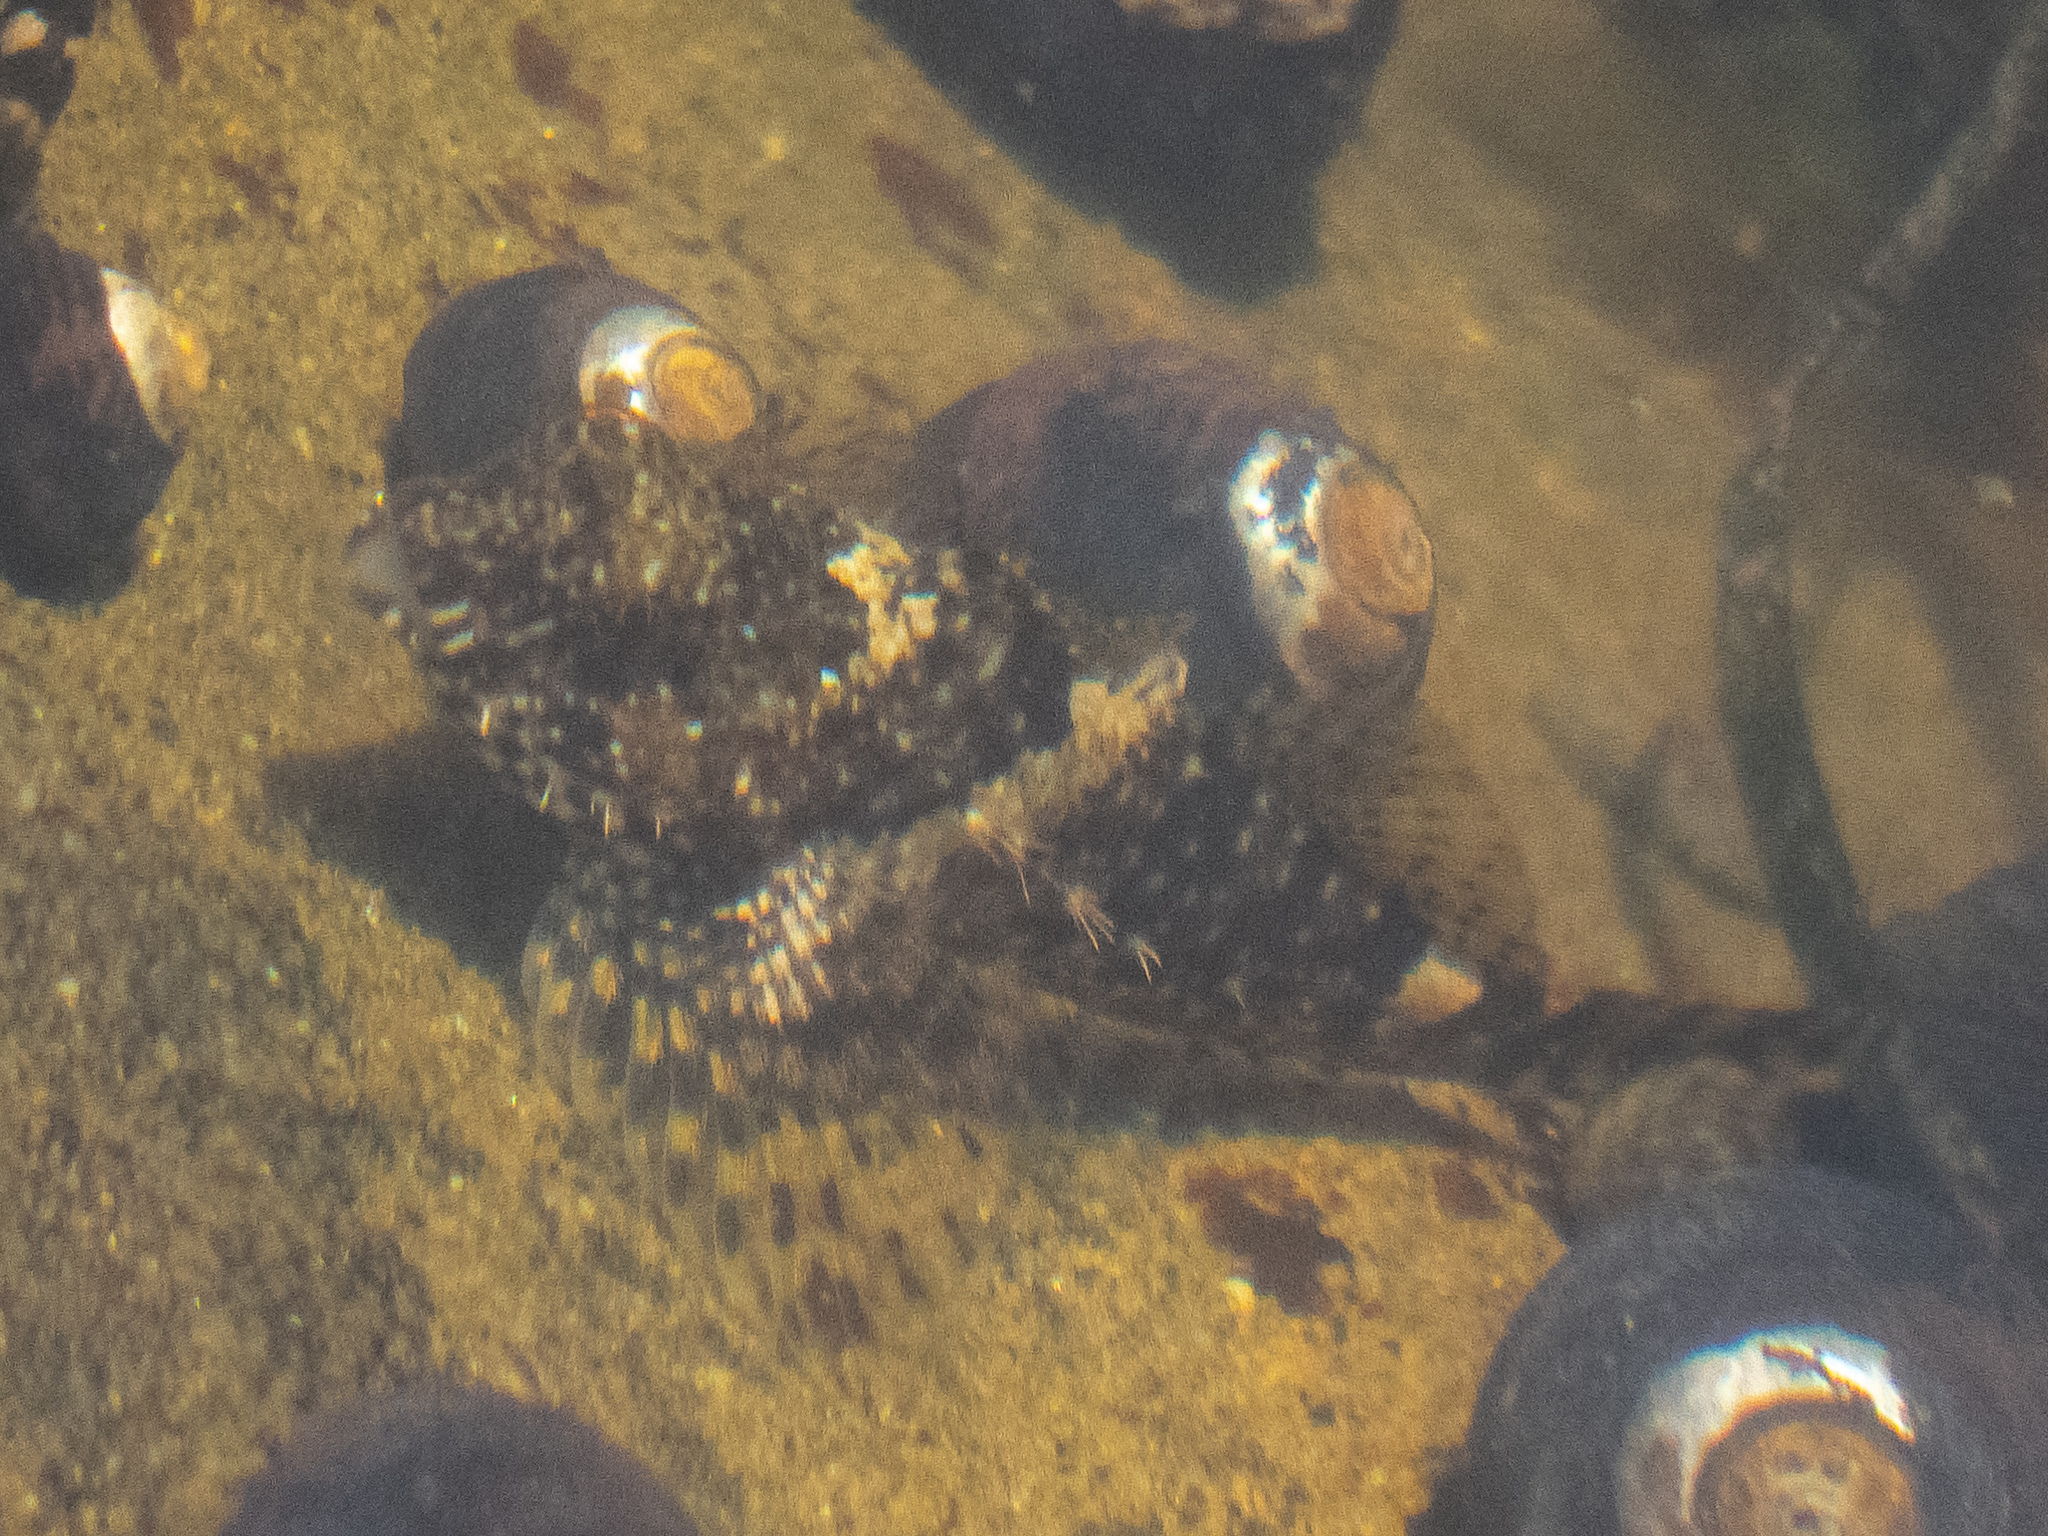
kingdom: Animalia
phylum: Chordata
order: Scorpaeniformes
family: Cottidae
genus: Clinocottus
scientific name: Clinocottus analis
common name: Woolly sculpin
